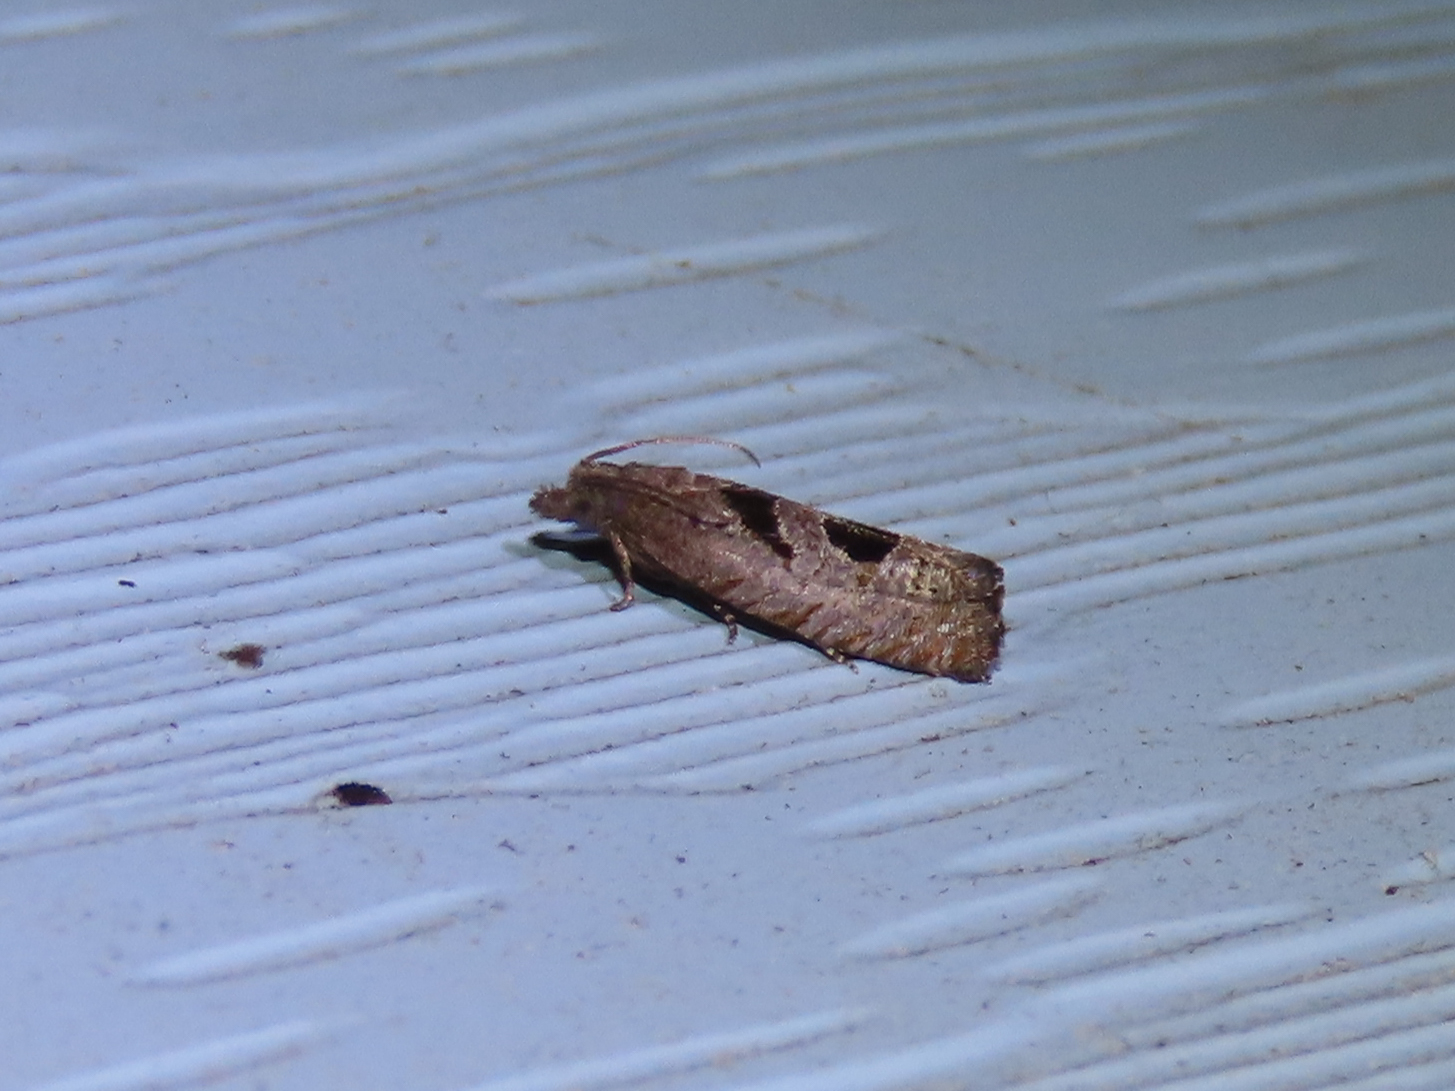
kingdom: Animalia
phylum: Arthropoda
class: Insecta
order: Lepidoptera
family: Tortricidae
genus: Eucosma
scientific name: Eucosma tomonana
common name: Aster-head eucosma moth
